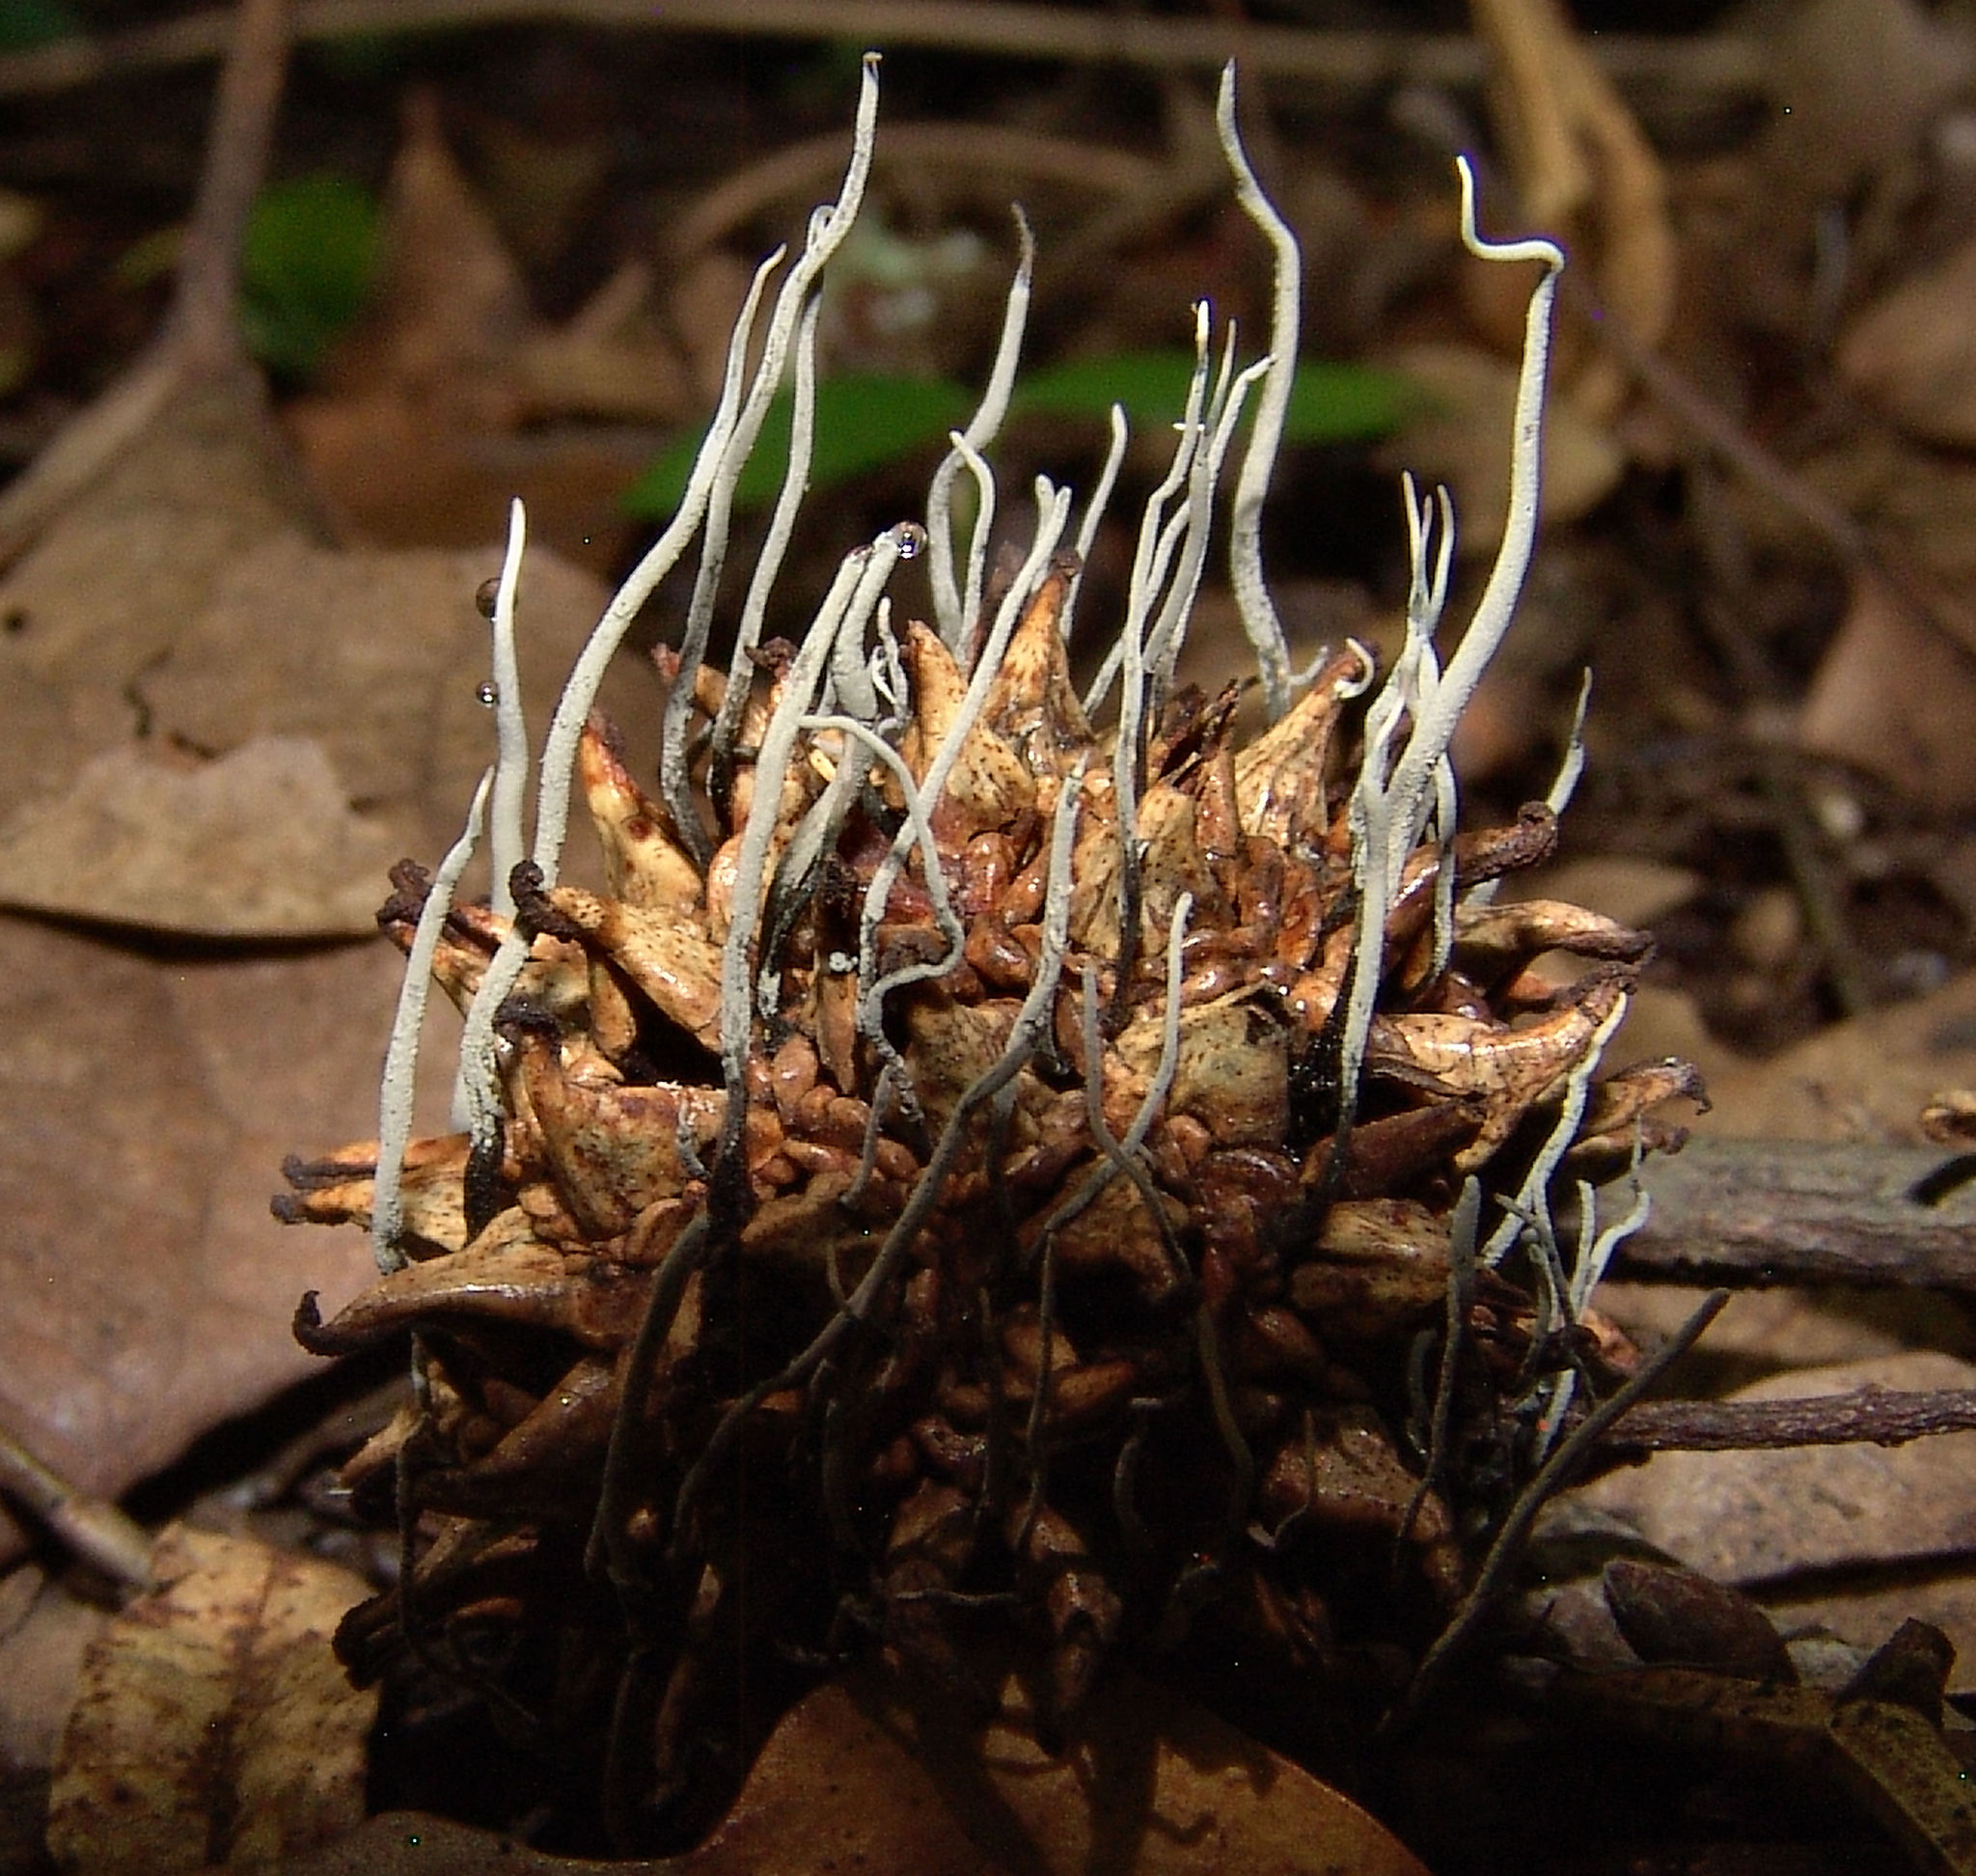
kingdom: Fungi
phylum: Ascomycota
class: Sordariomycetes
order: Xylariales
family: Xylariaceae
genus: Xylaria
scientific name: Xylaria liquidambaris
